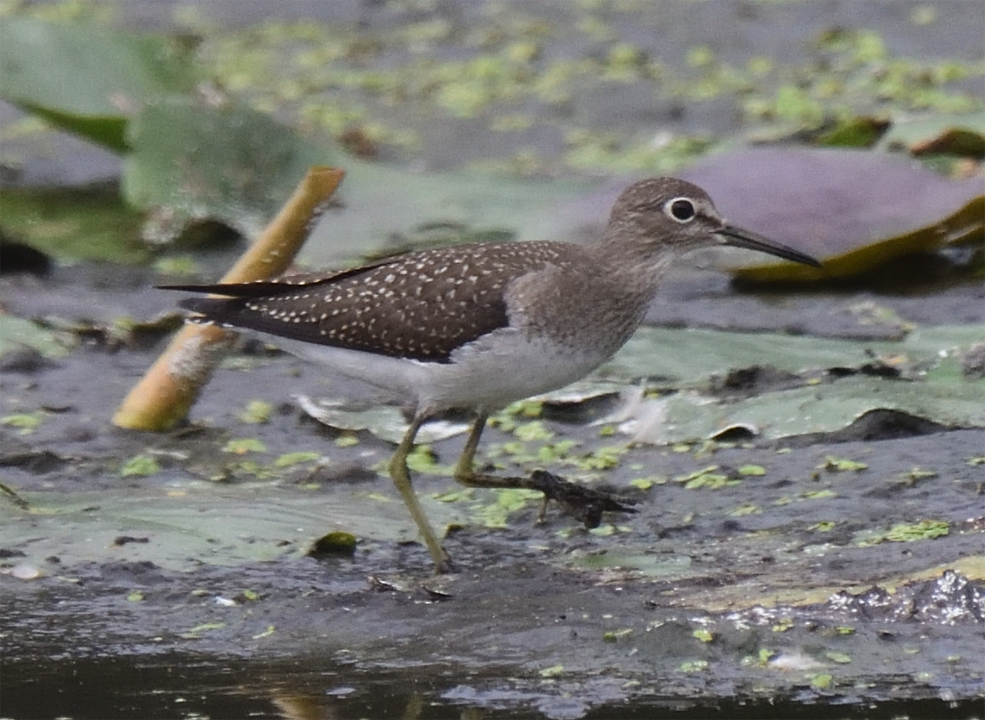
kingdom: Animalia
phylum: Chordata
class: Aves
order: Charadriiformes
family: Scolopacidae
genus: Tringa
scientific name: Tringa solitaria
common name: Solitary sandpiper
